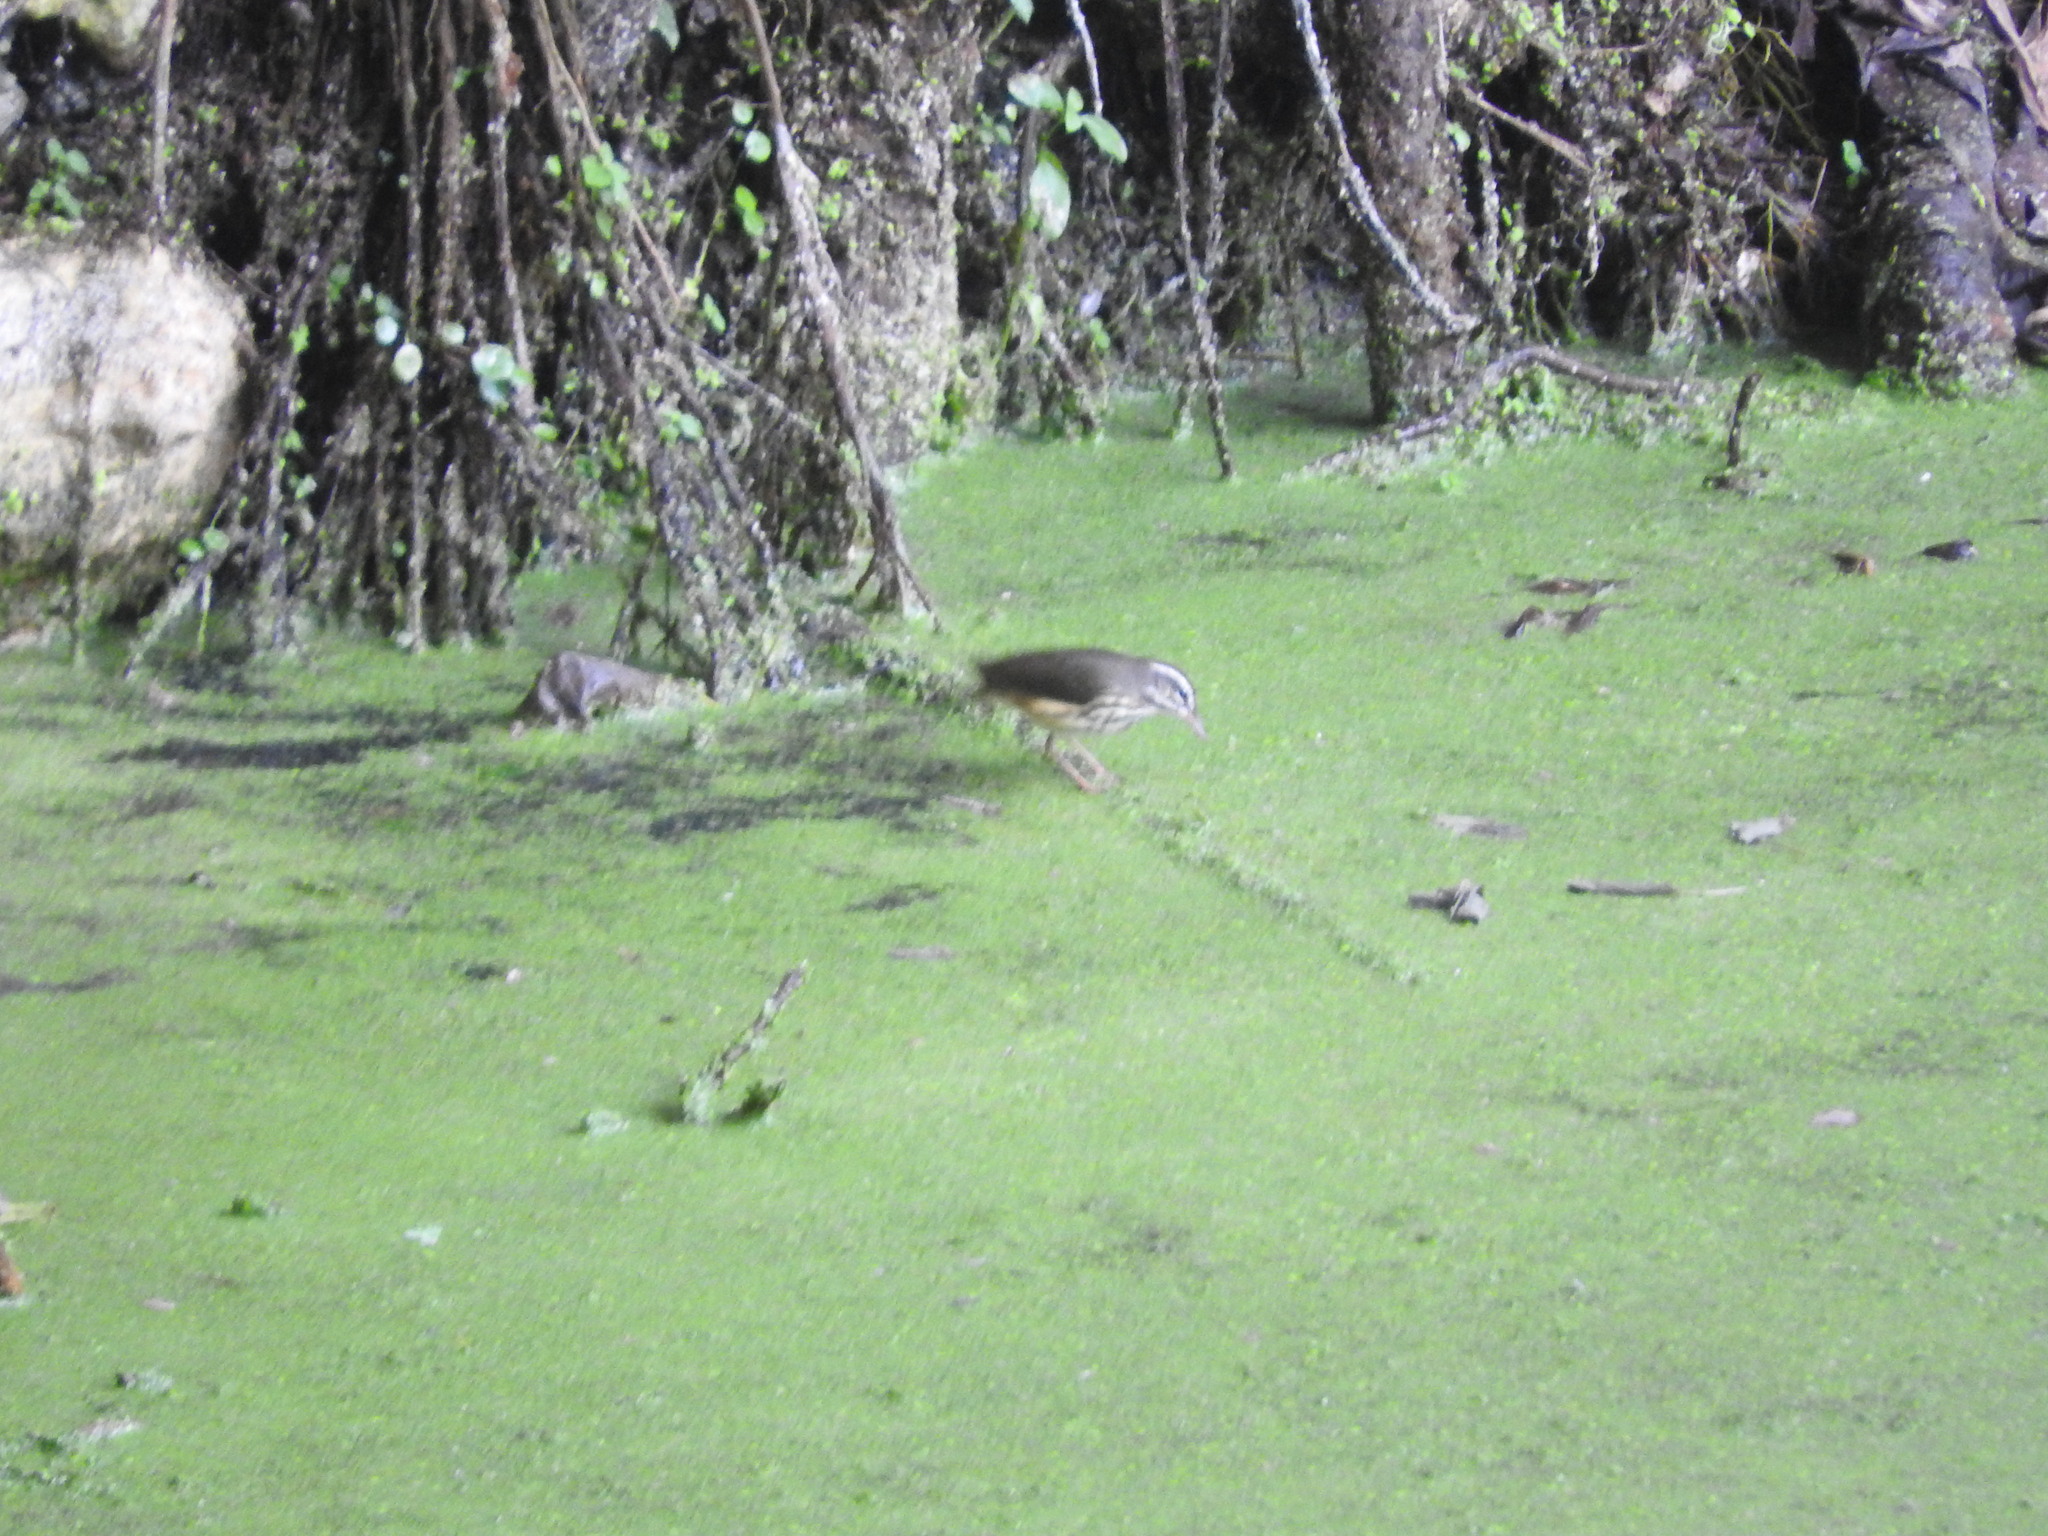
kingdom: Animalia
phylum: Chordata
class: Aves
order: Passeriformes
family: Parulidae
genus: Parkesia
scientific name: Parkesia motacilla
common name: Louisiana waterthrush
